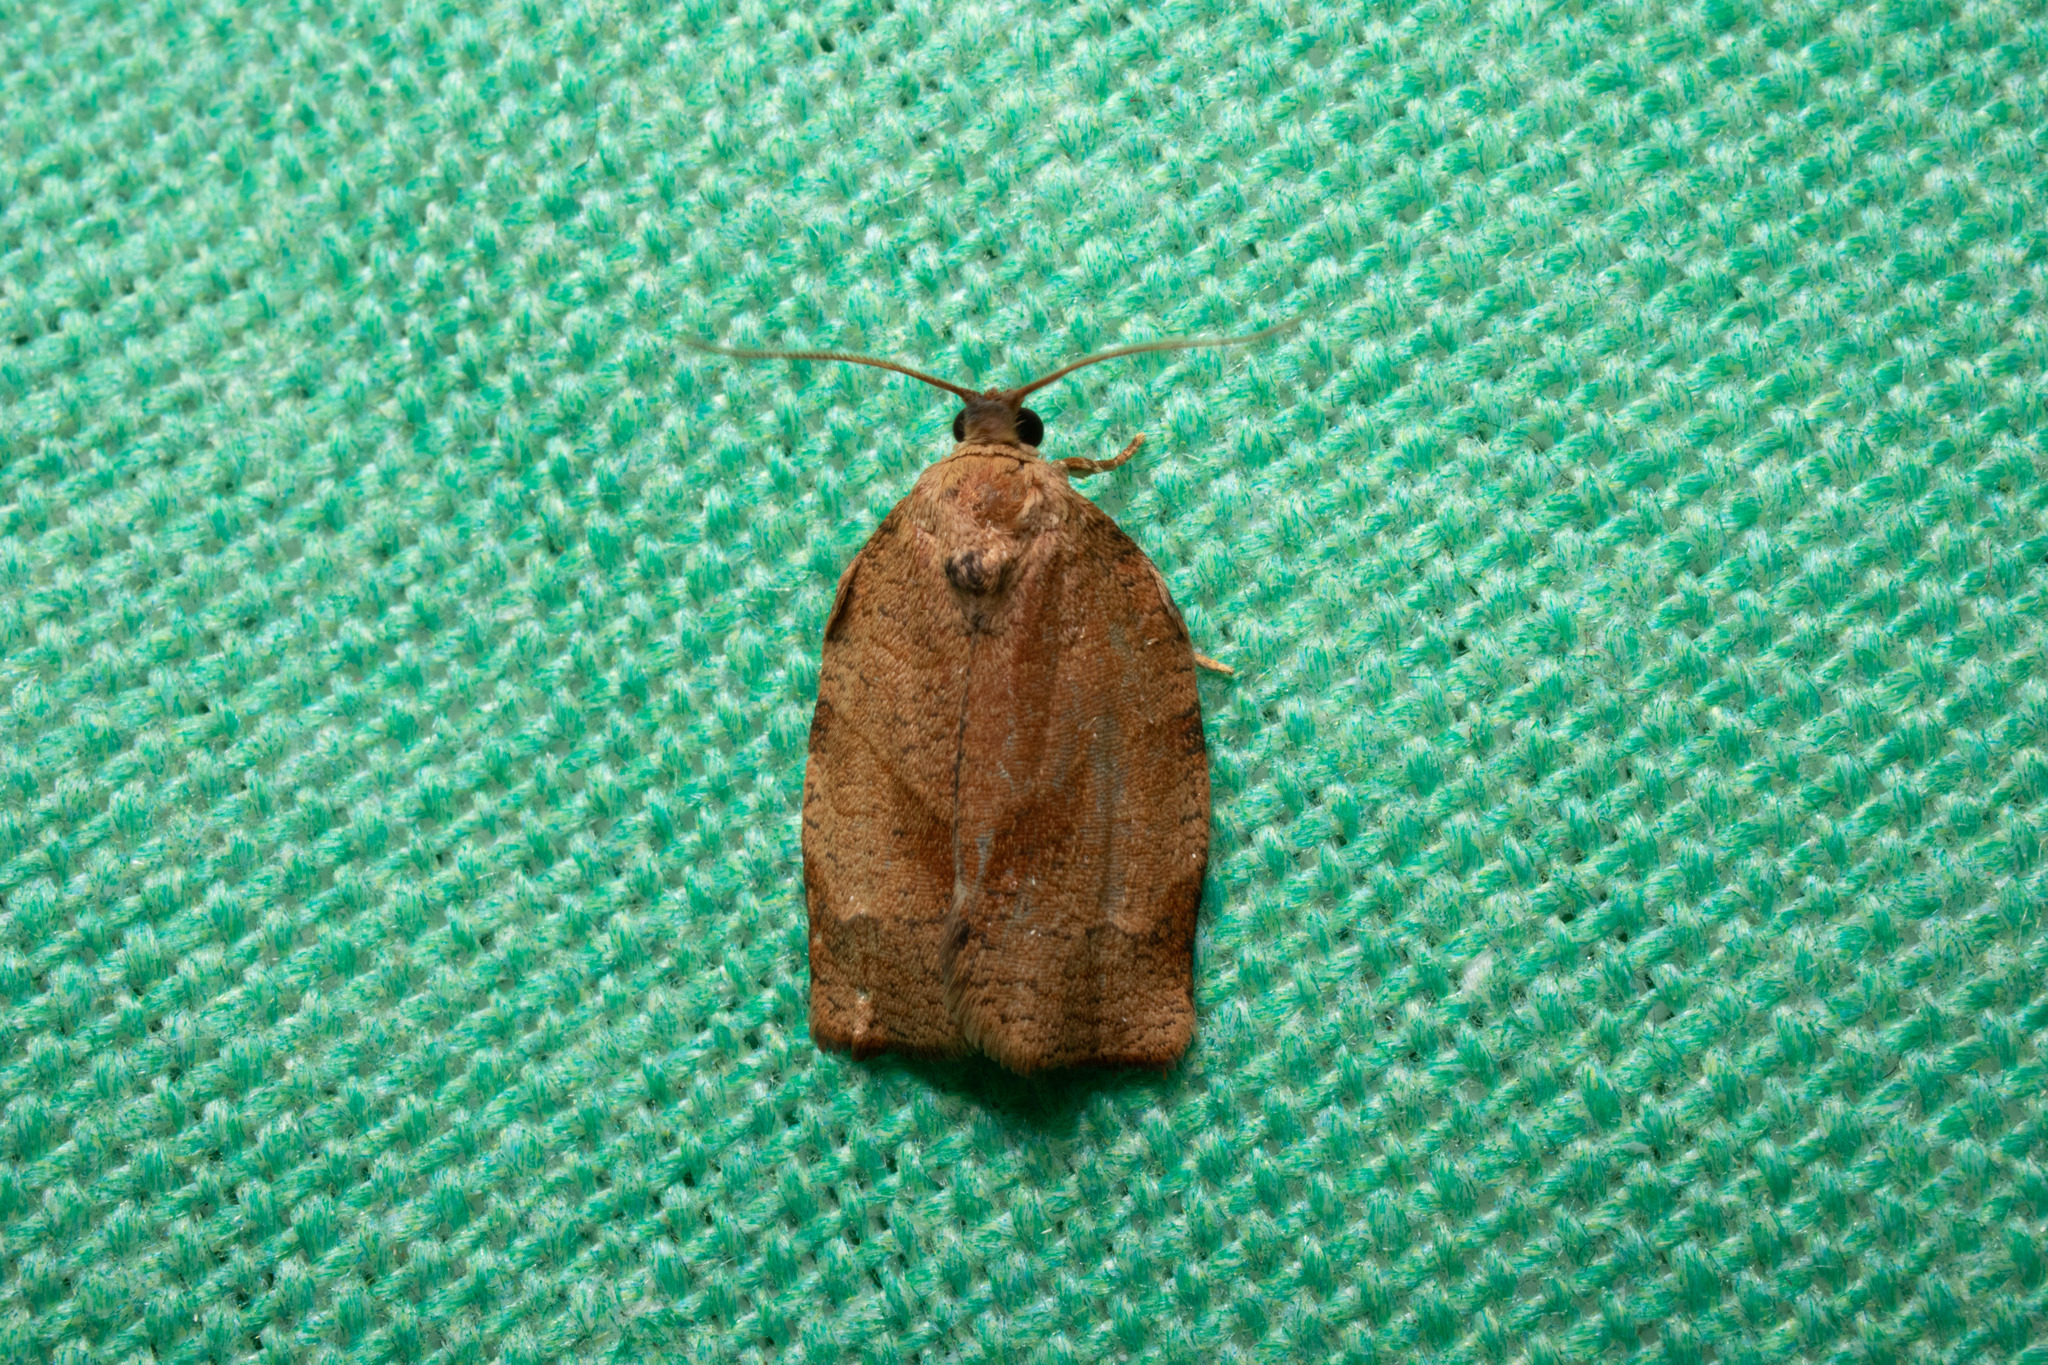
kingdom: Animalia
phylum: Arthropoda
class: Insecta
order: Lepidoptera
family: Tortricidae
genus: Choristoneura
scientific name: Choristoneura rosaceana
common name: Oblique-banded leafroller moth
